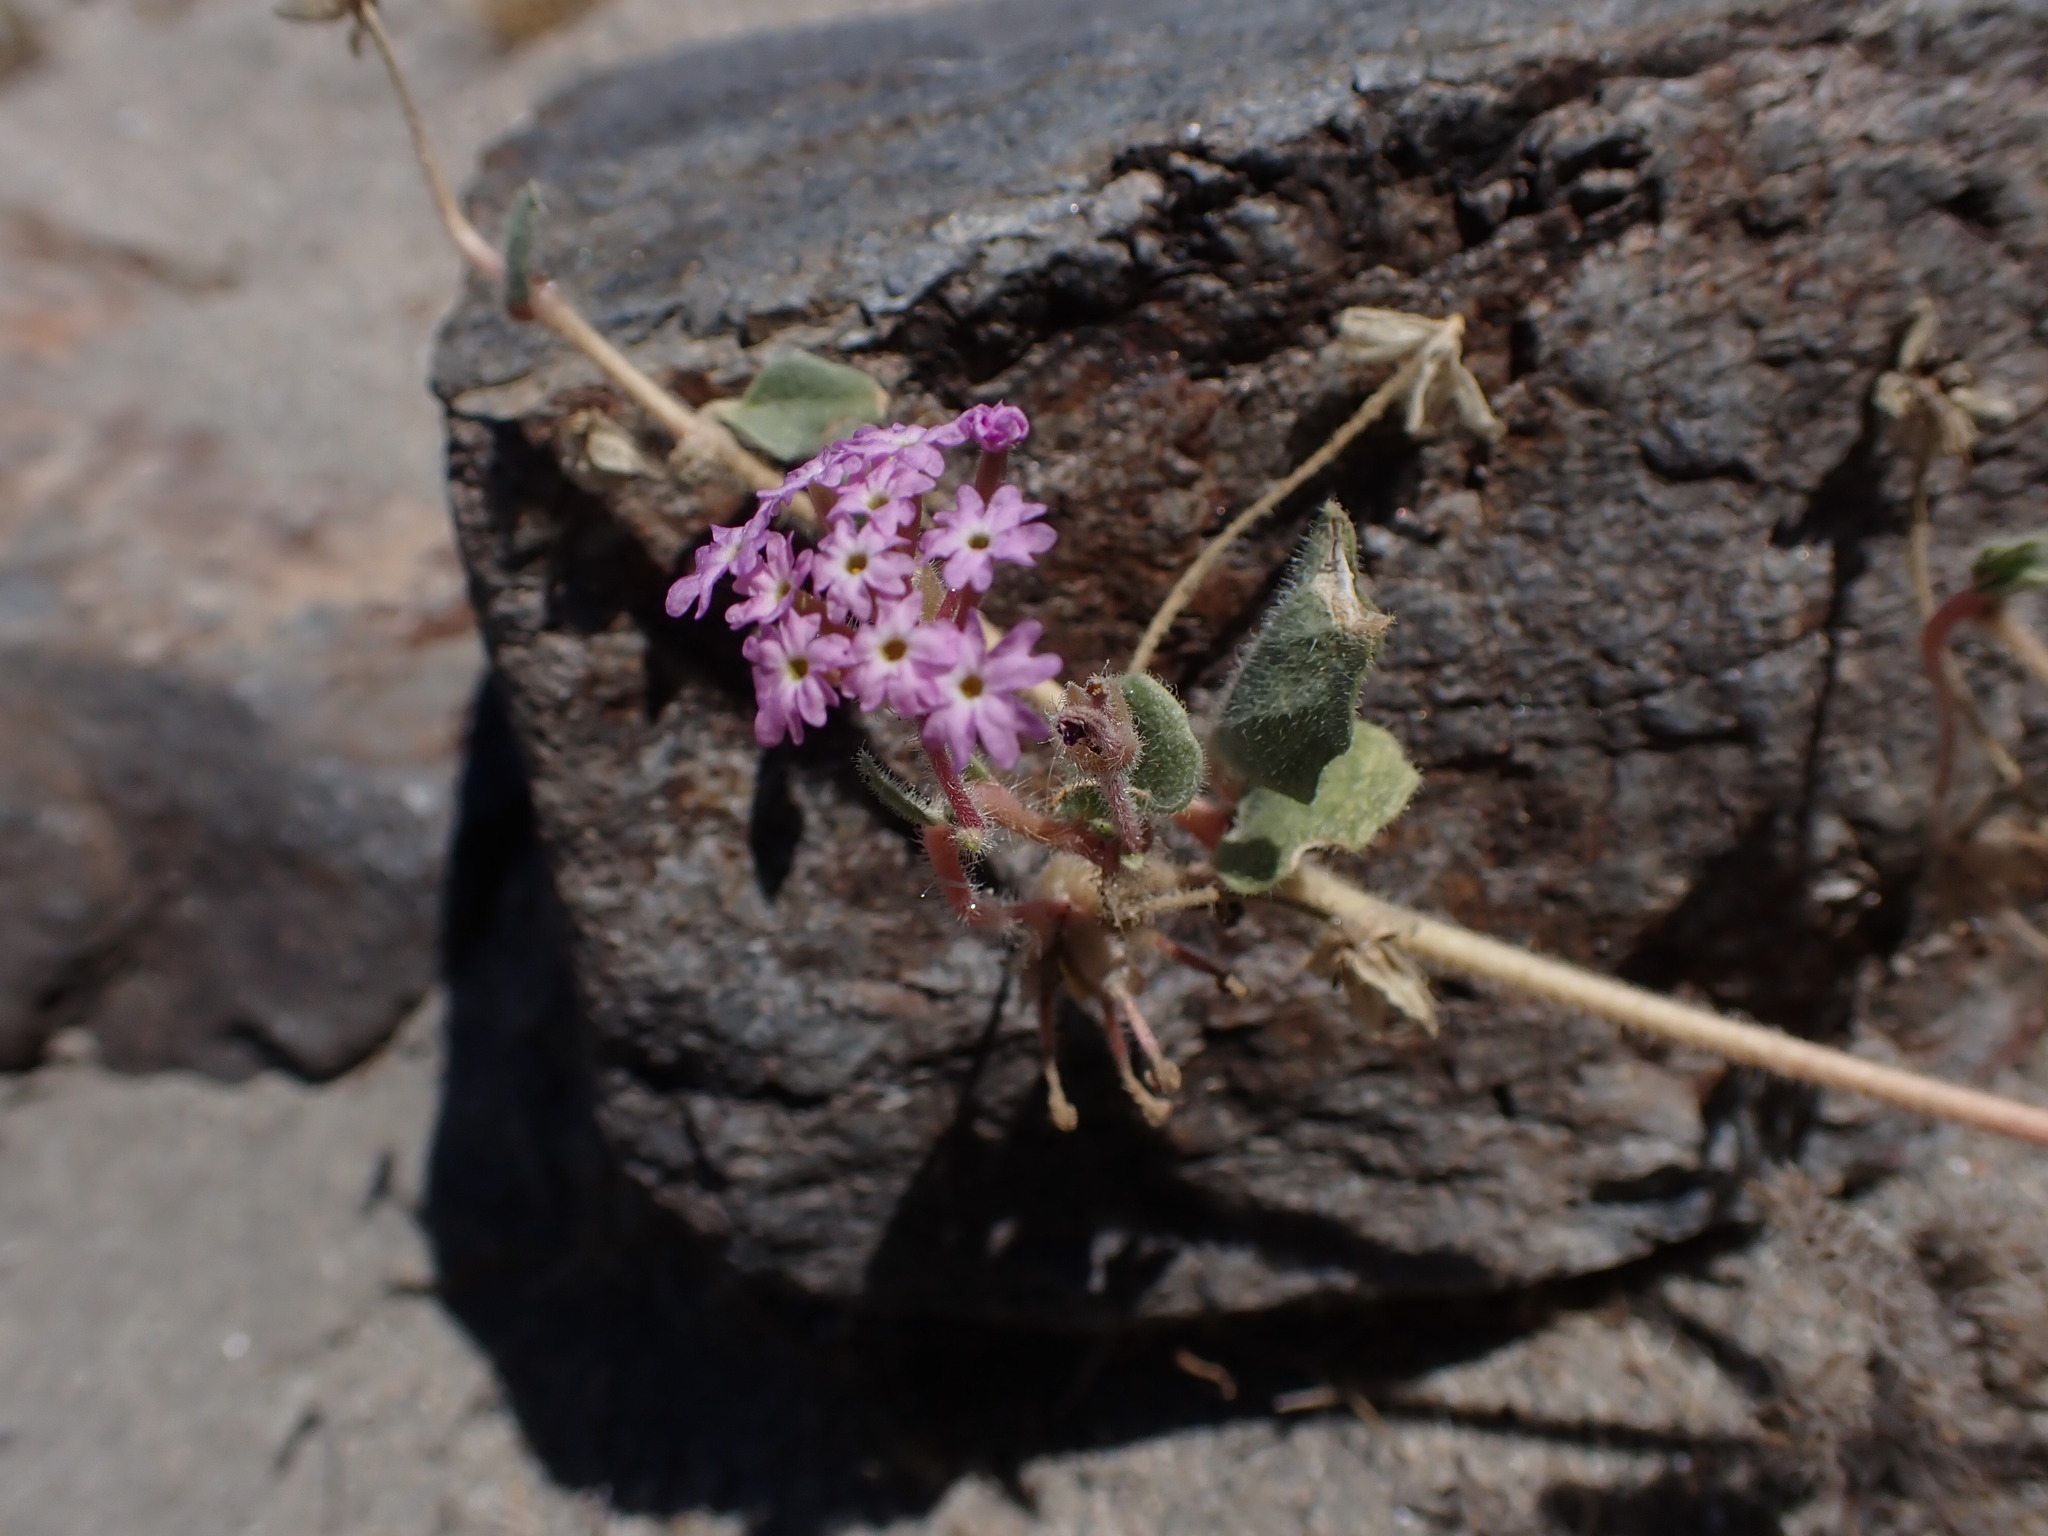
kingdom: Plantae
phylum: Tracheophyta
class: Magnoliopsida
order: Caryophyllales
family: Nyctaginaceae
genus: Abronia
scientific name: Abronia villosa
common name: Desert sand-verbena
